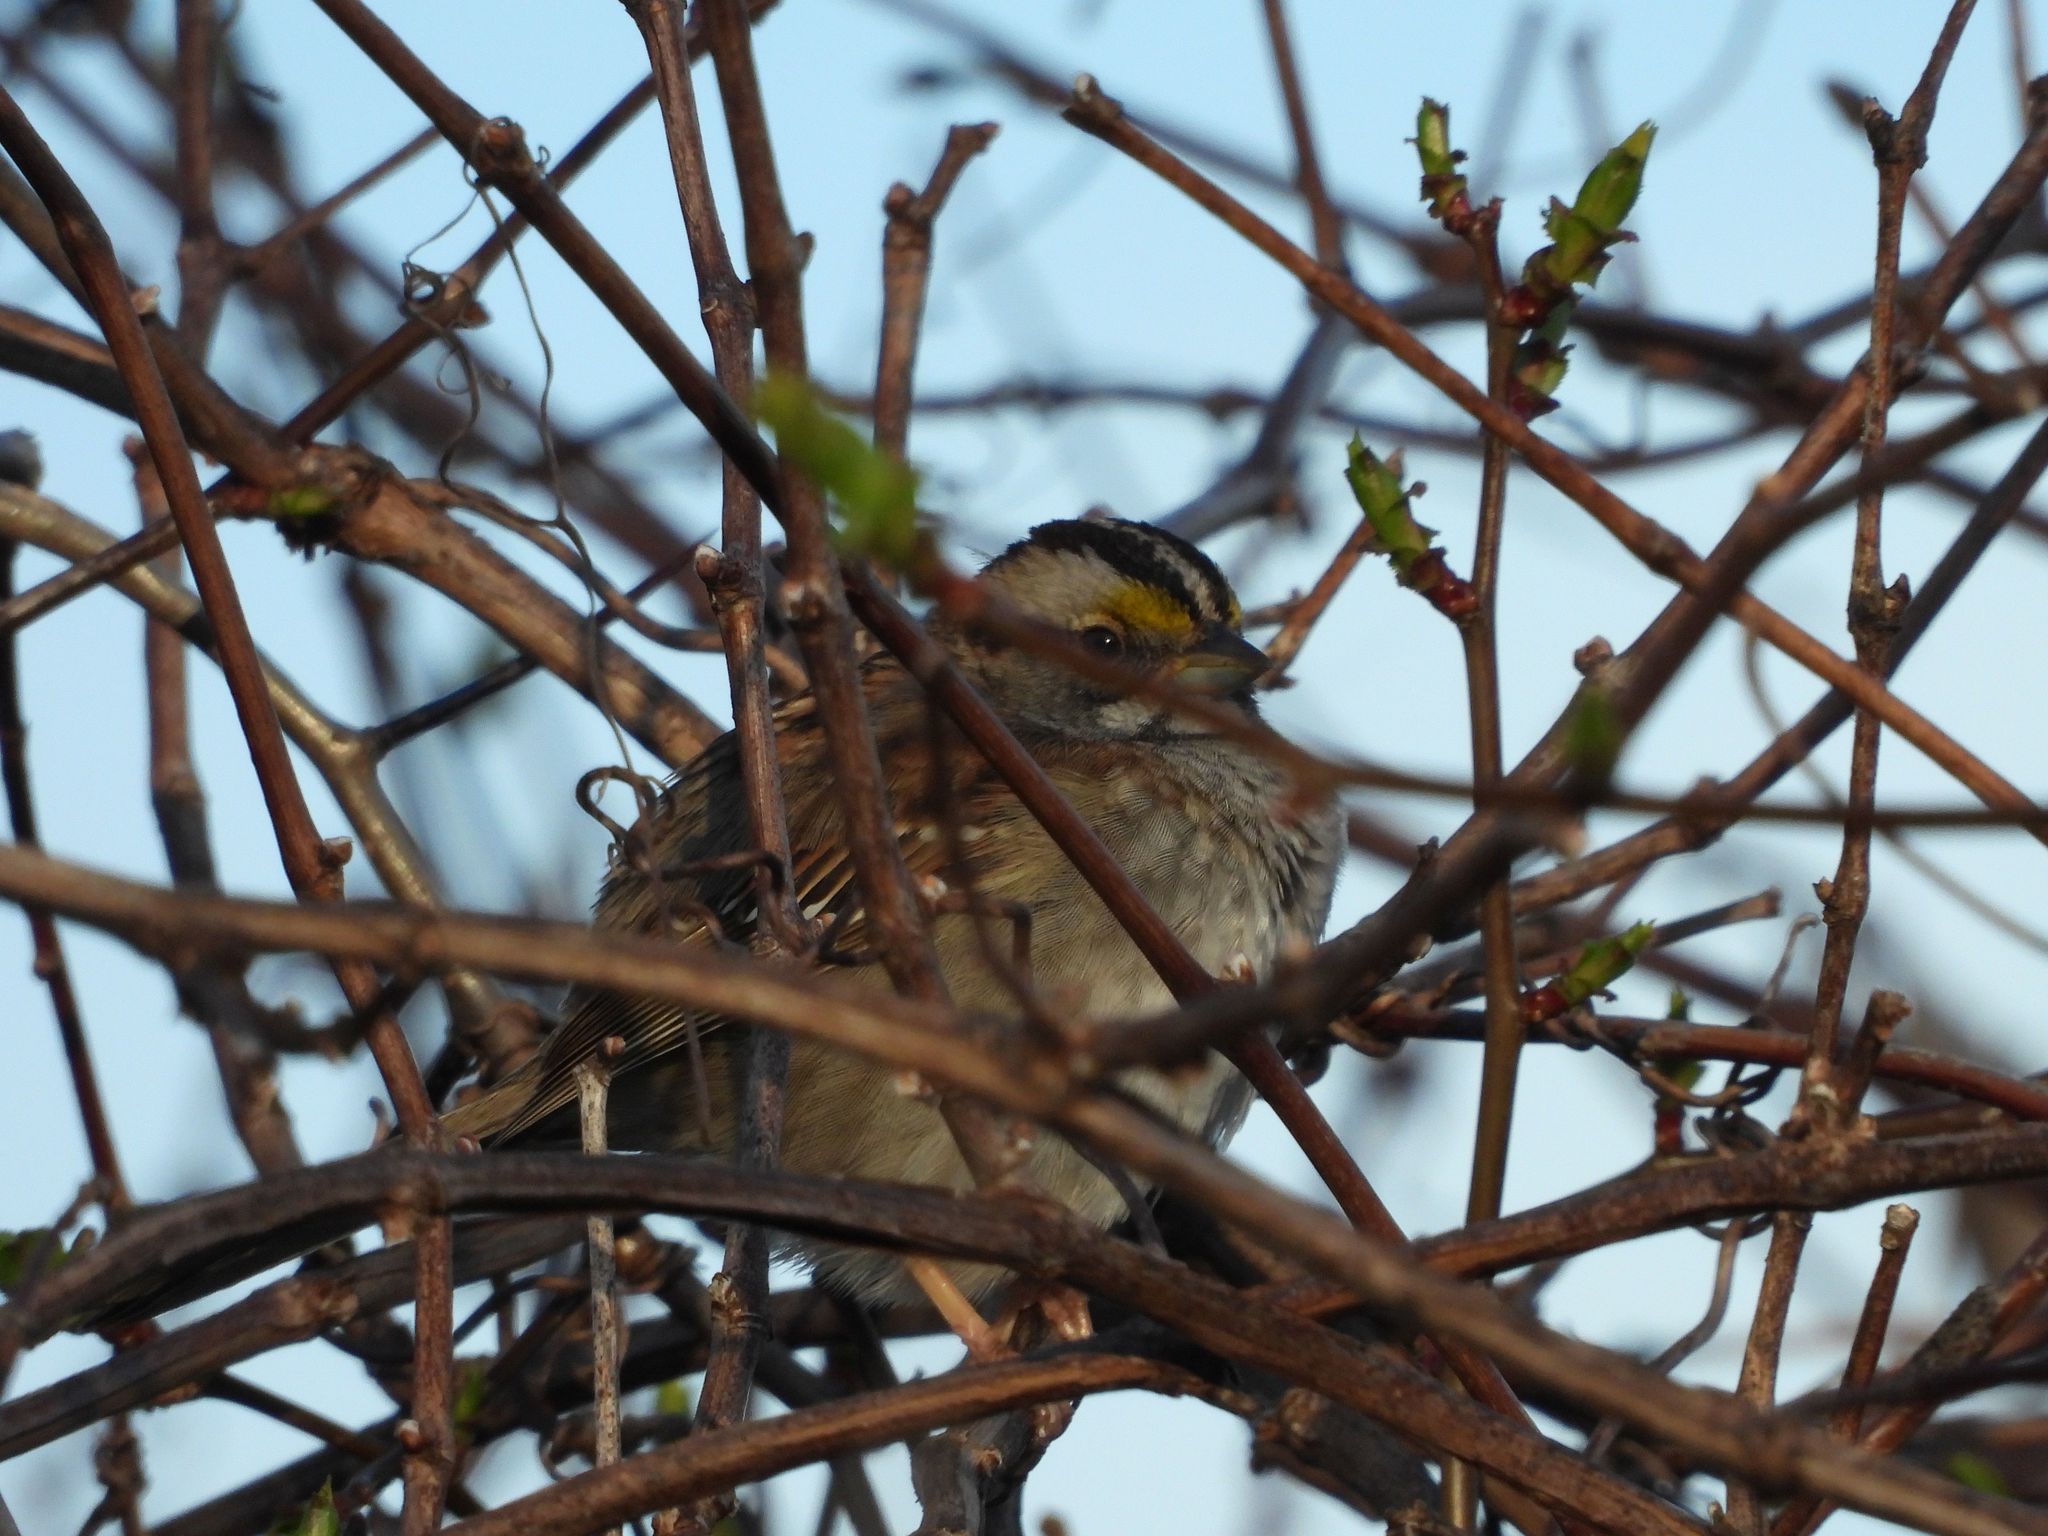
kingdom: Animalia
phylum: Chordata
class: Aves
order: Passeriformes
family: Passerellidae
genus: Zonotrichia
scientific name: Zonotrichia albicollis
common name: White-throated sparrow
